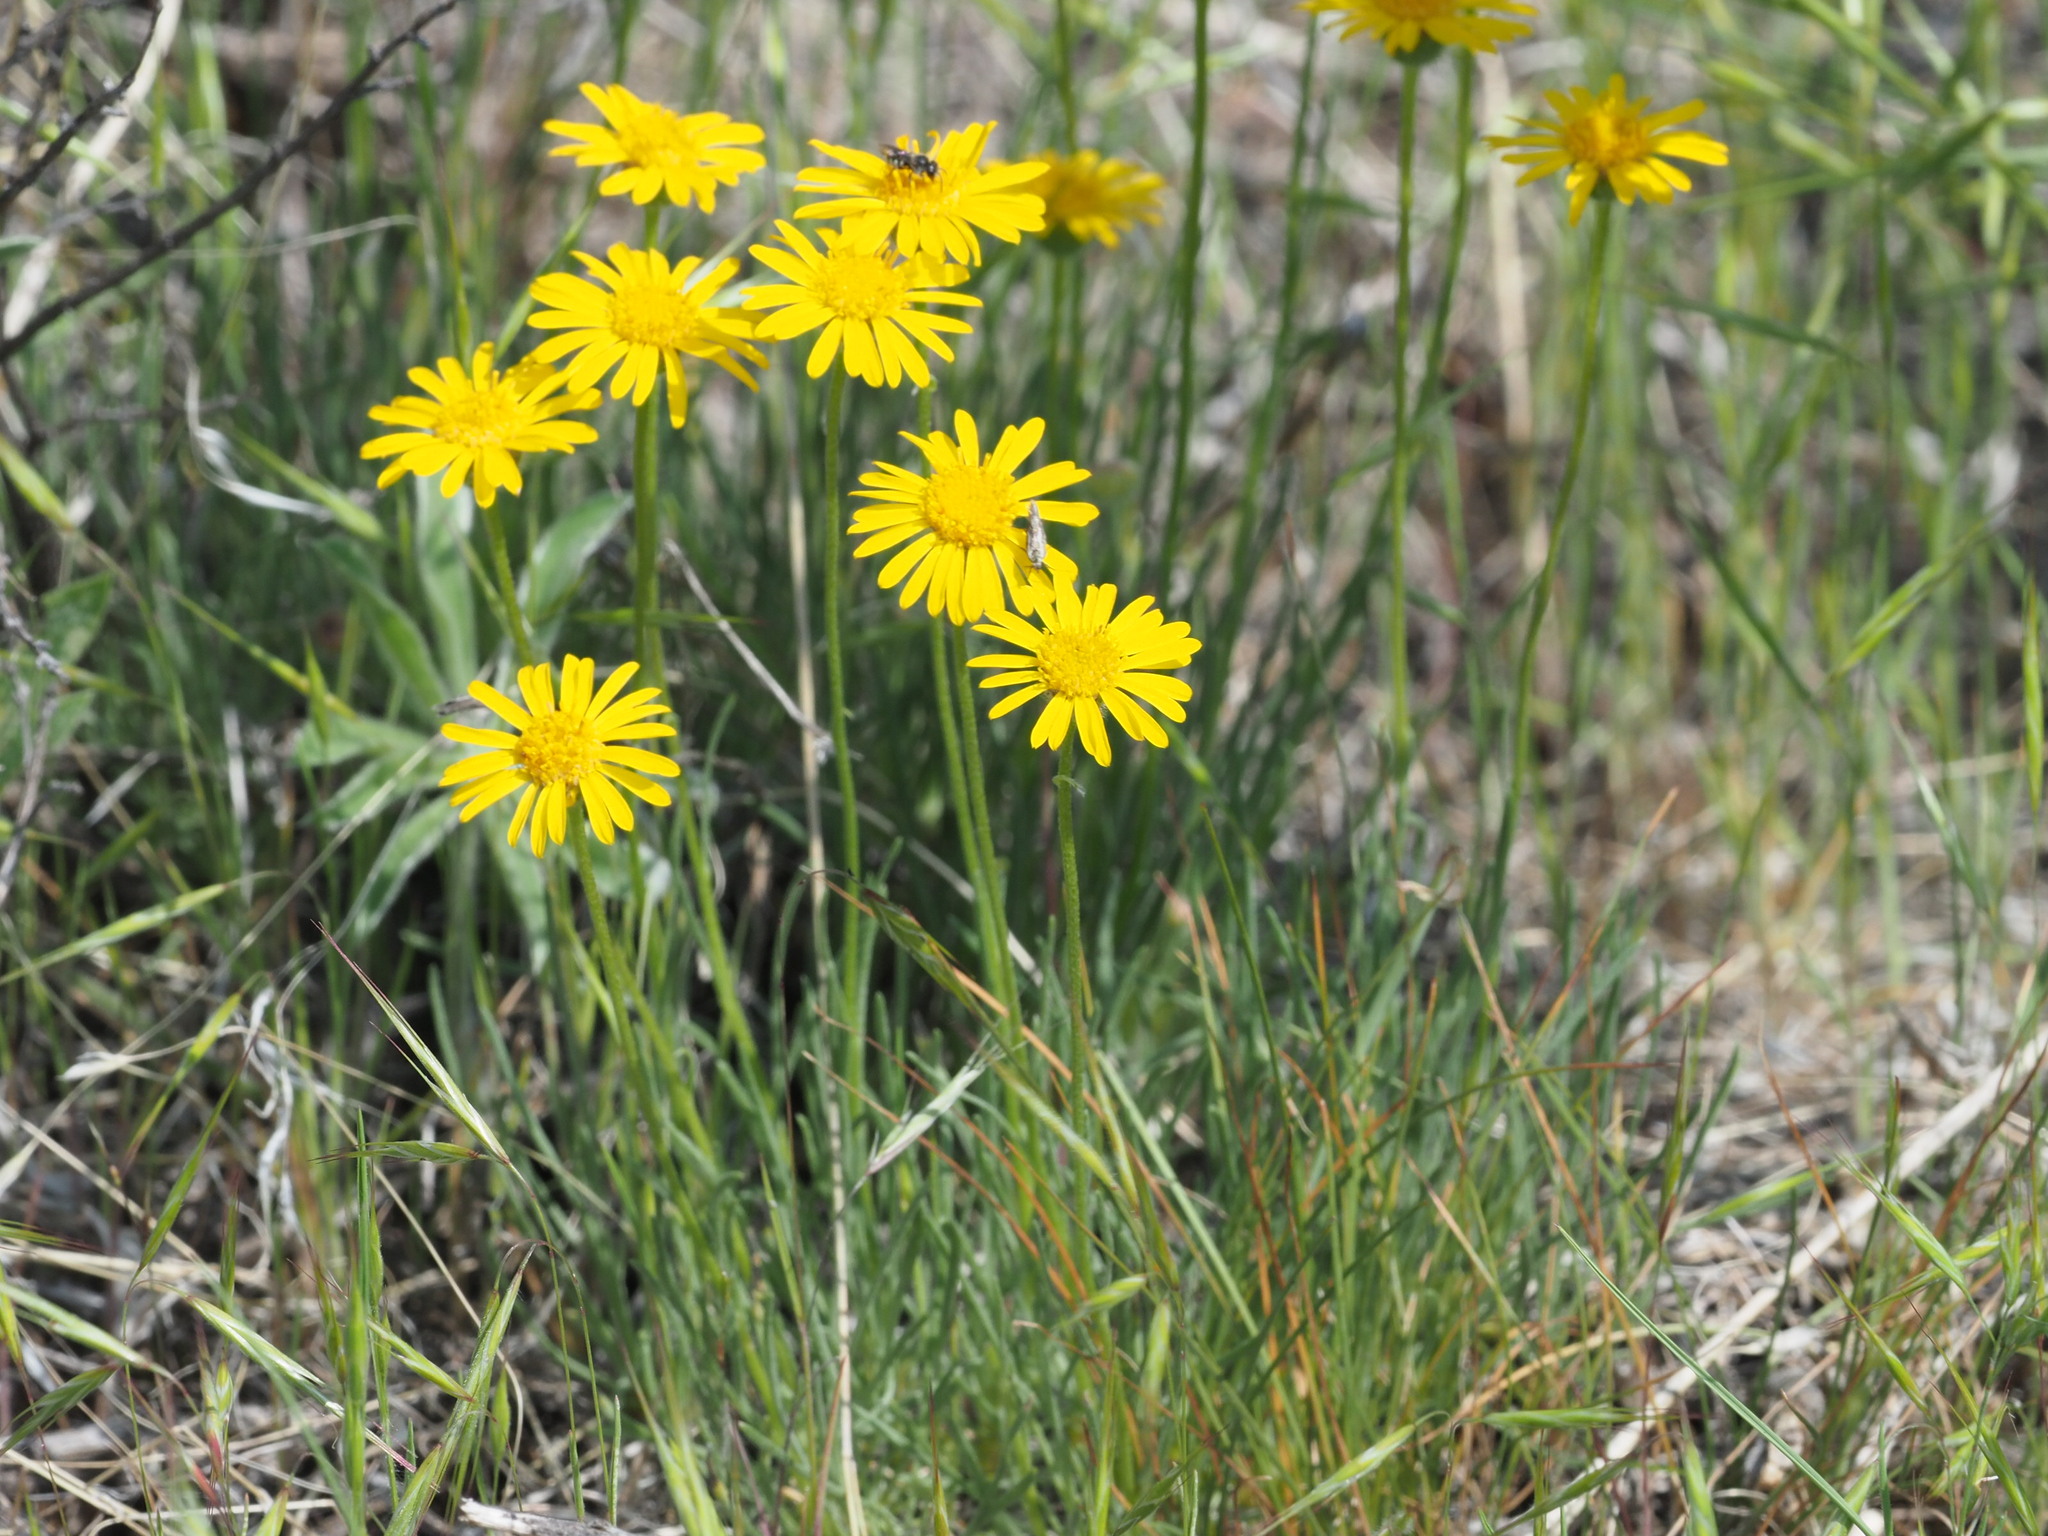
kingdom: Plantae
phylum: Tracheophyta
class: Magnoliopsida
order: Asterales
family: Asteraceae
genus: Erigeron
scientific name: Erigeron linearis
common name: Desert yellow fleabane
